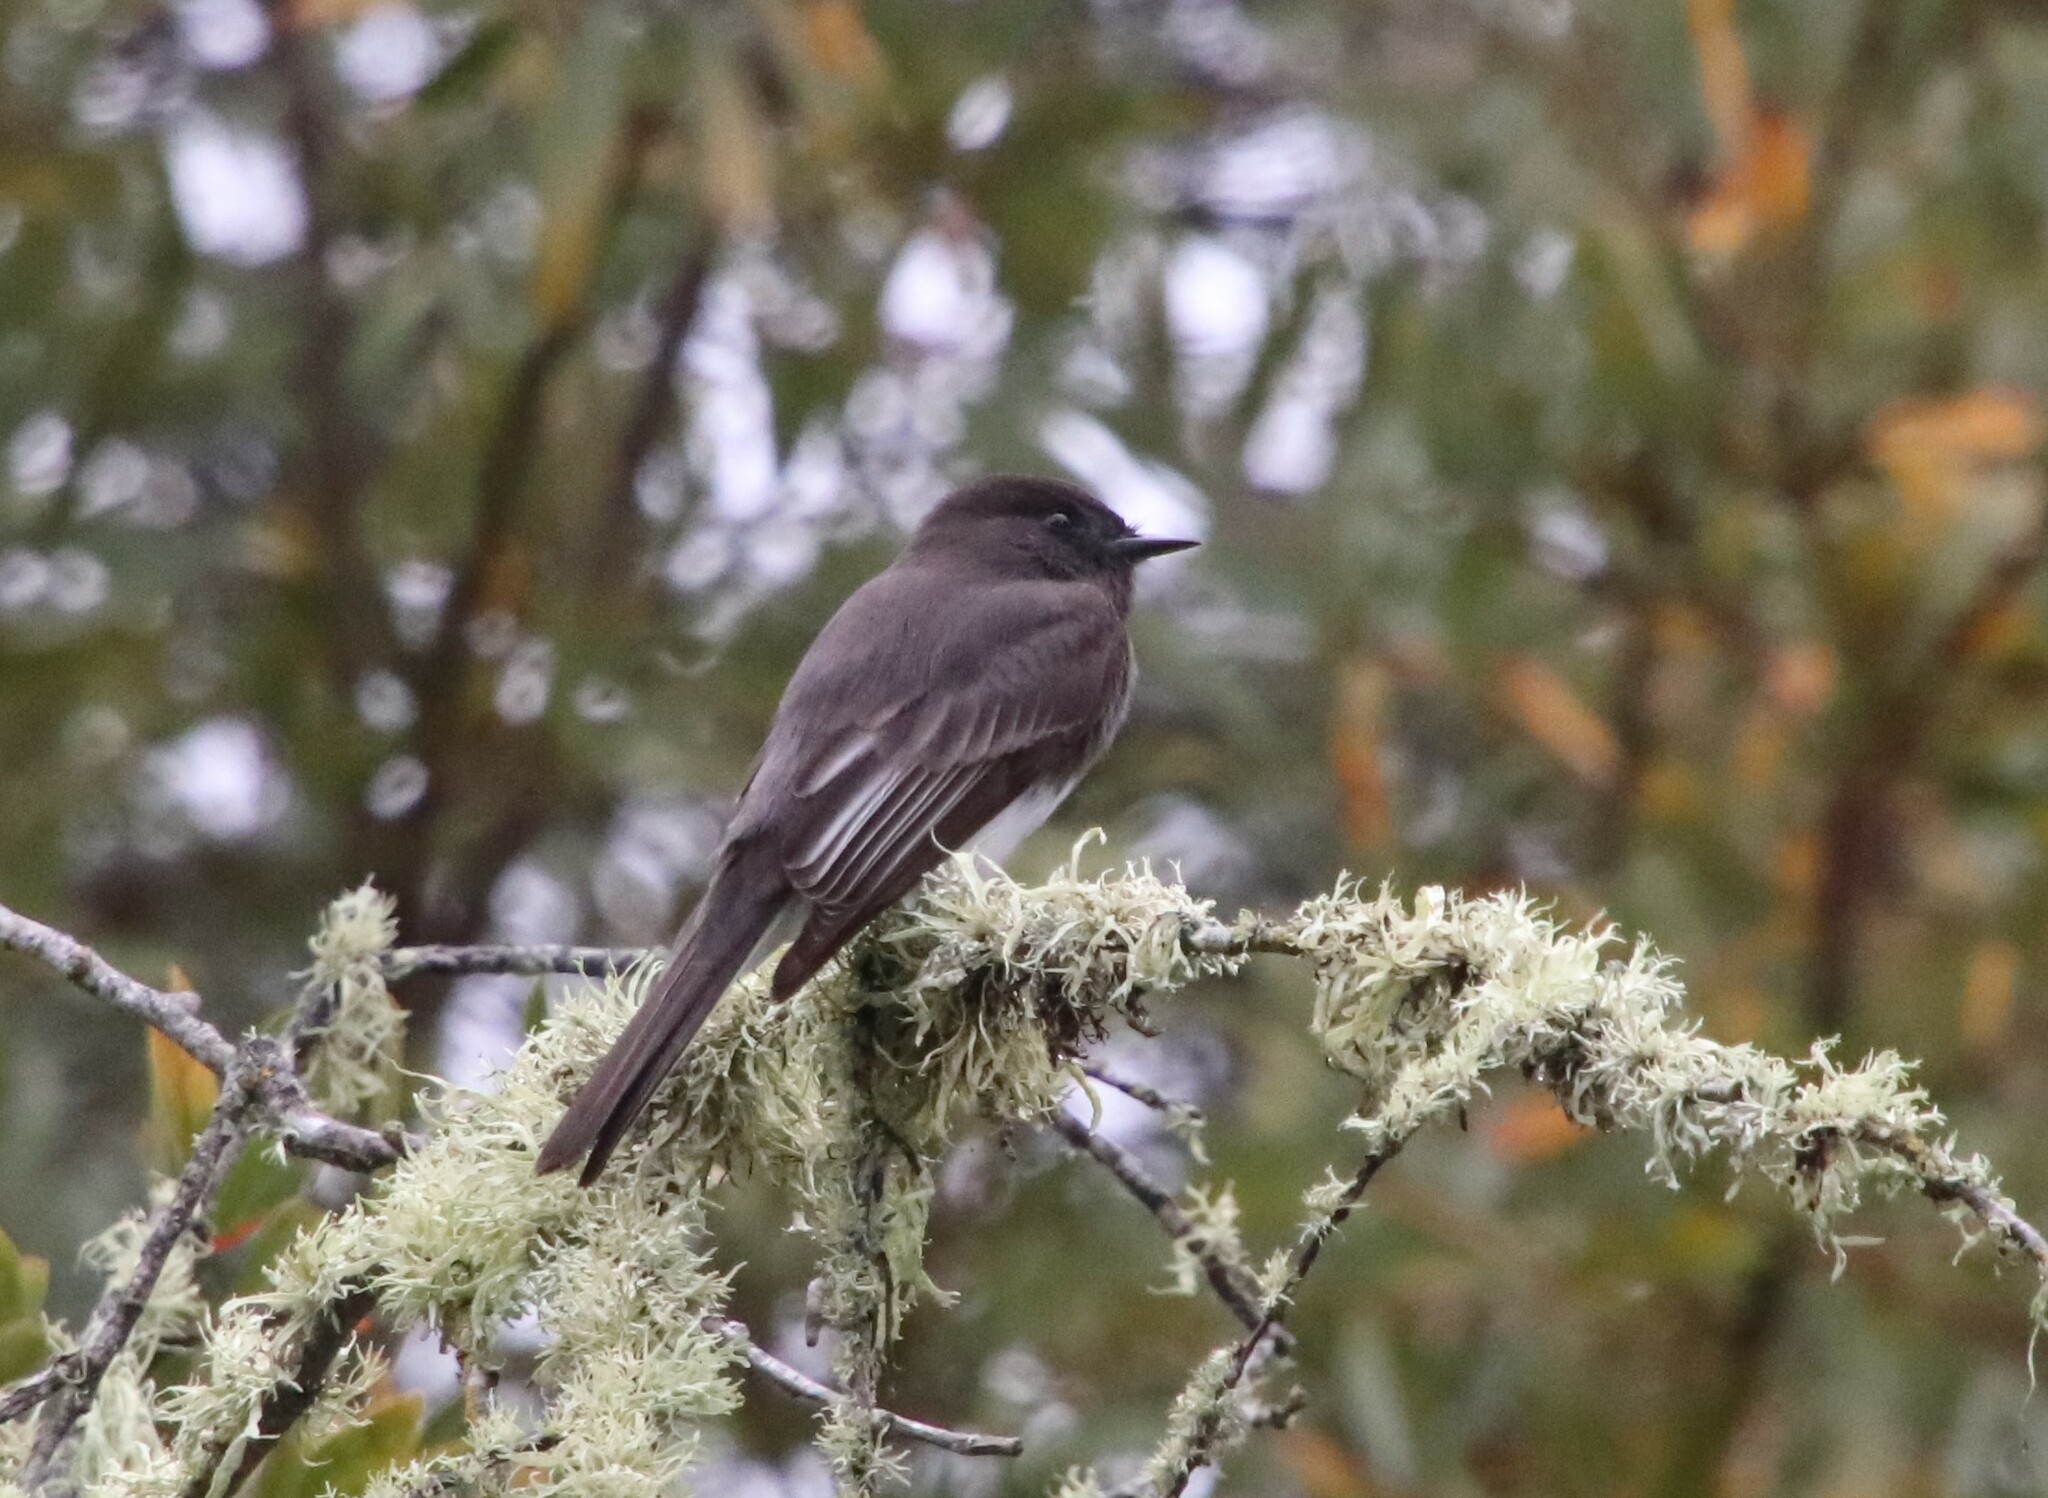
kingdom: Animalia
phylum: Chordata
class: Aves
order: Passeriformes
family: Tyrannidae
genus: Sayornis
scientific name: Sayornis nigricans
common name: Black phoebe
